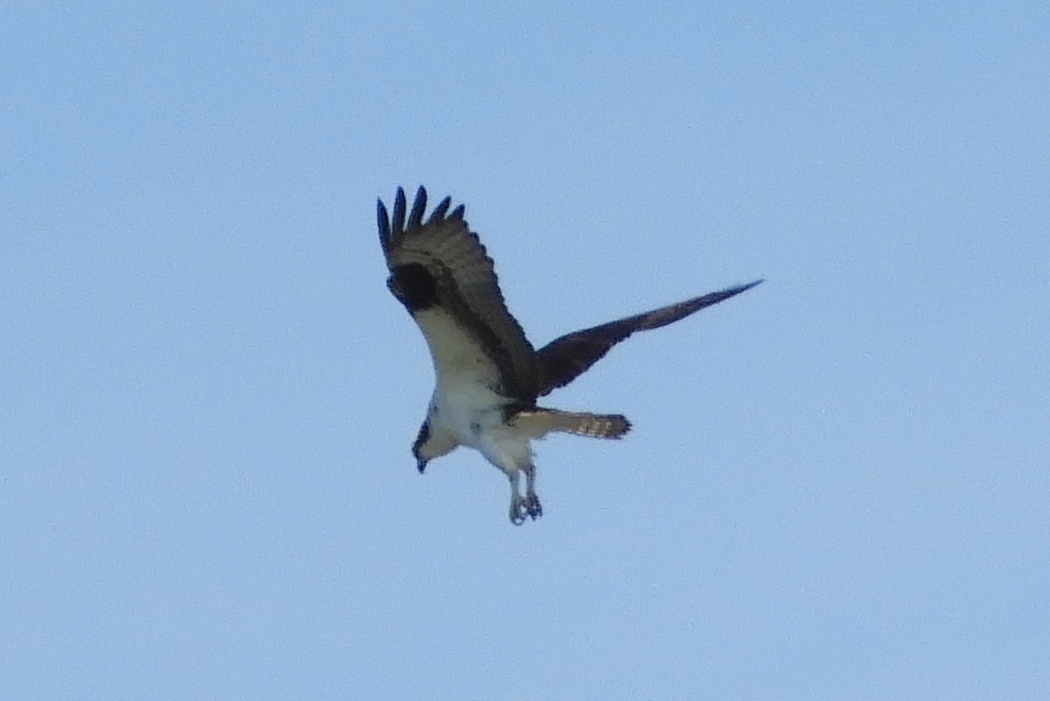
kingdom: Animalia
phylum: Chordata
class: Aves
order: Accipitriformes
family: Pandionidae
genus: Pandion
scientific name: Pandion haliaetus
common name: Osprey
